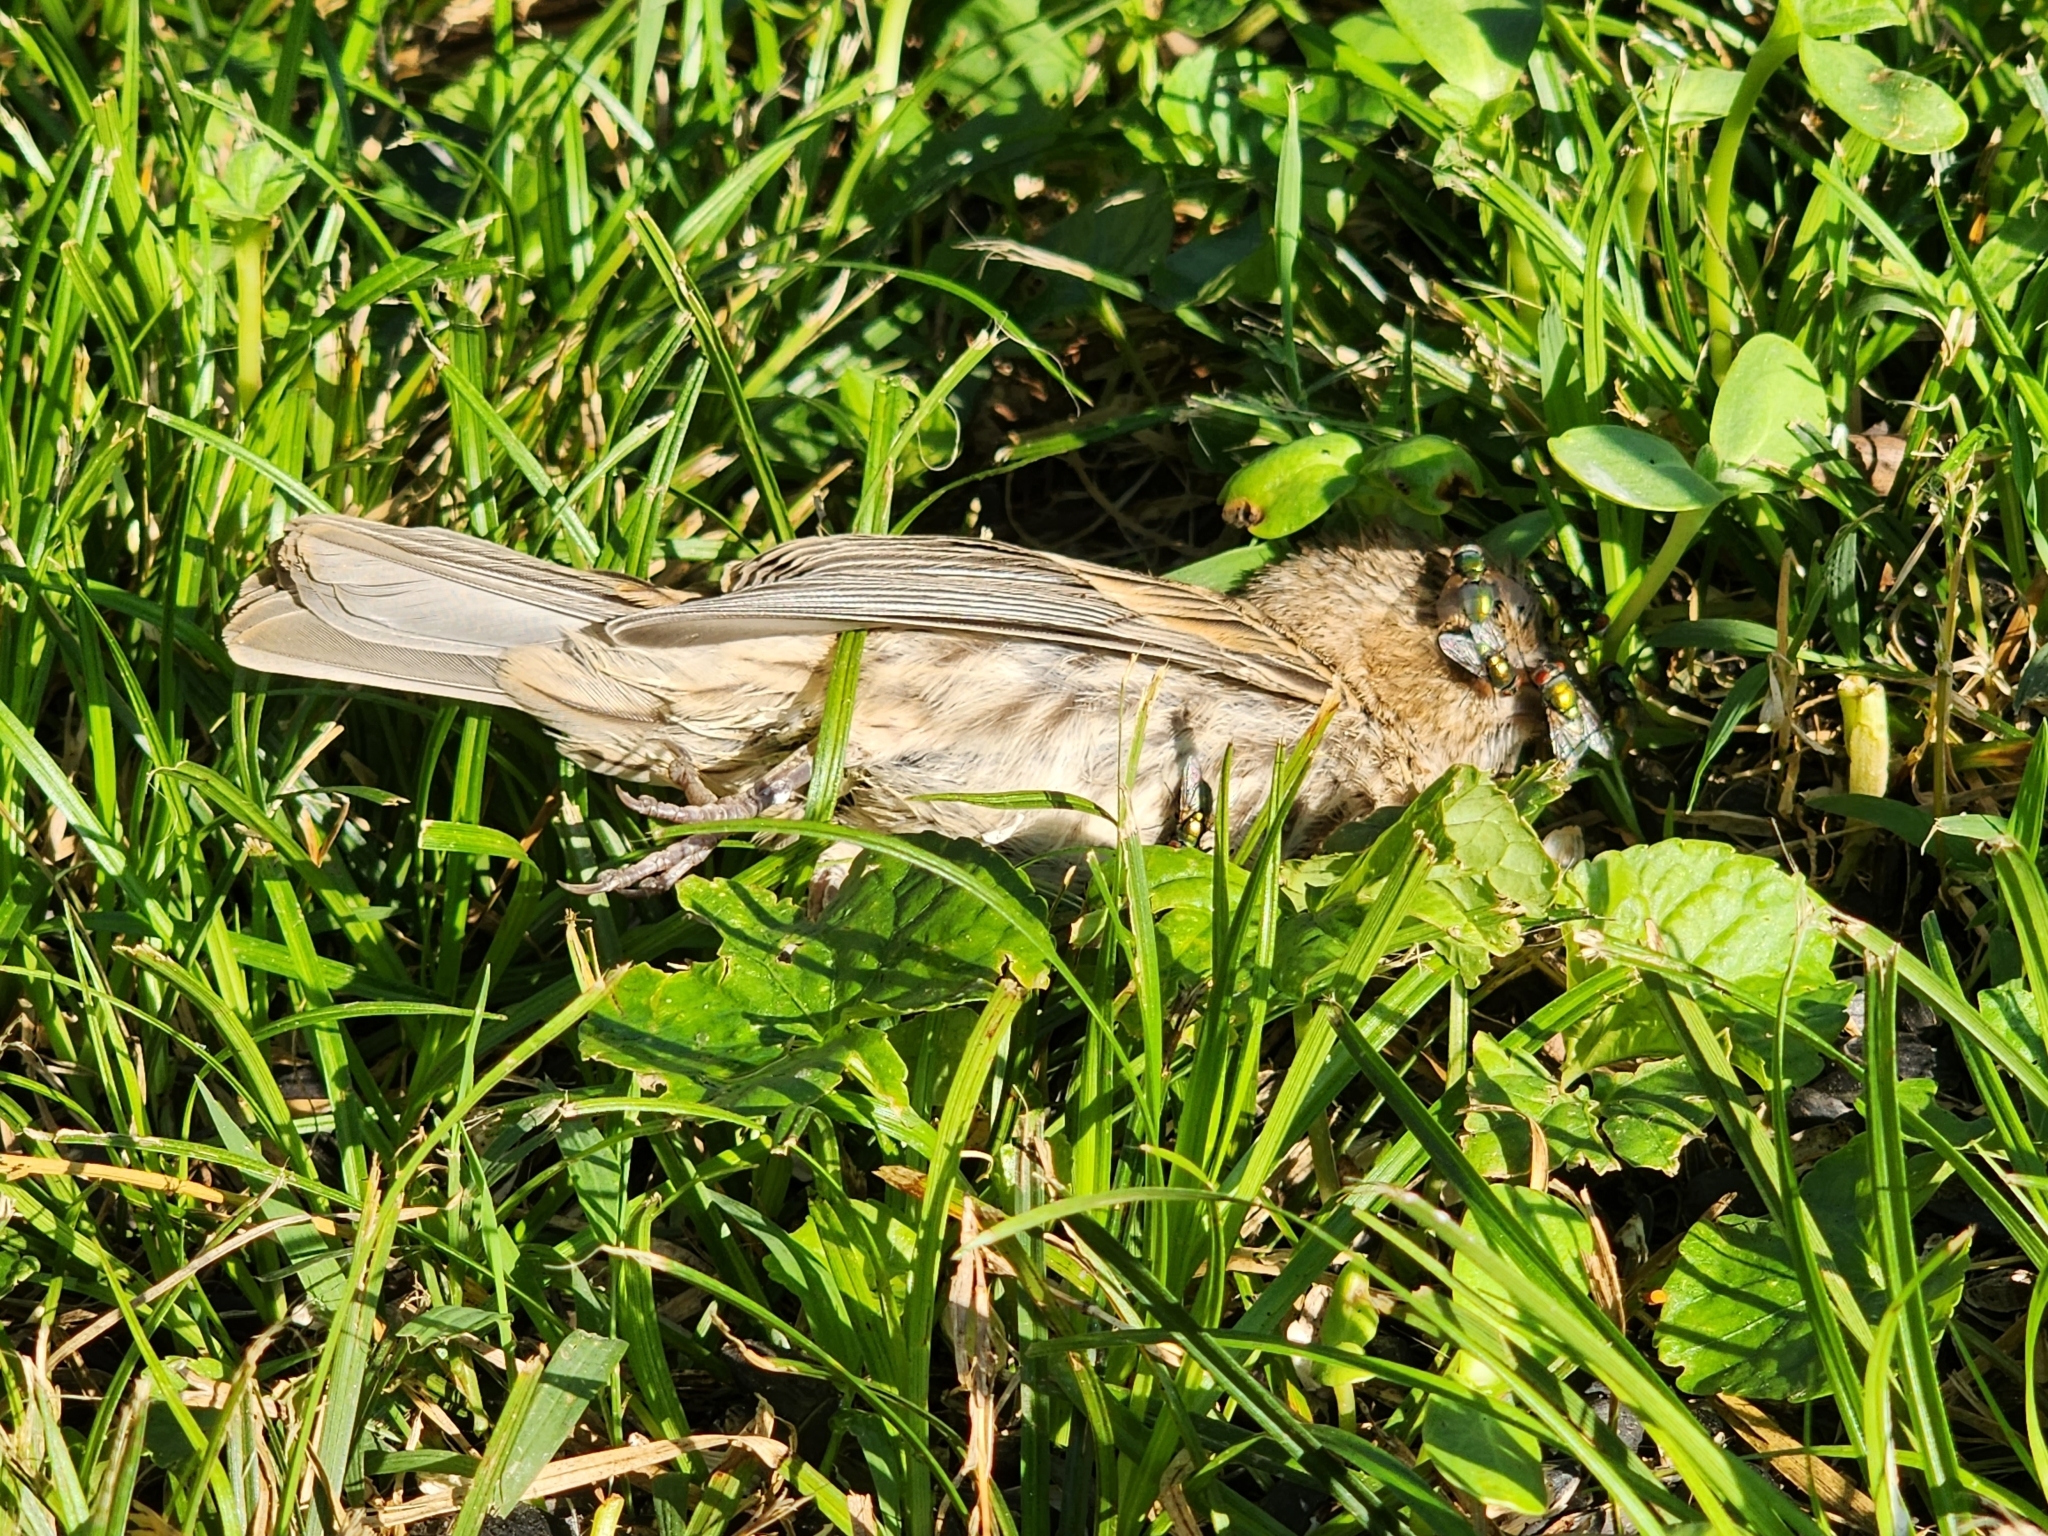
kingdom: Animalia
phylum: Chordata
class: Aves
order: Passeriformes
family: Fringillidae
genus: Haemorhous
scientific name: Haemorhous mexicanus
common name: House finch
